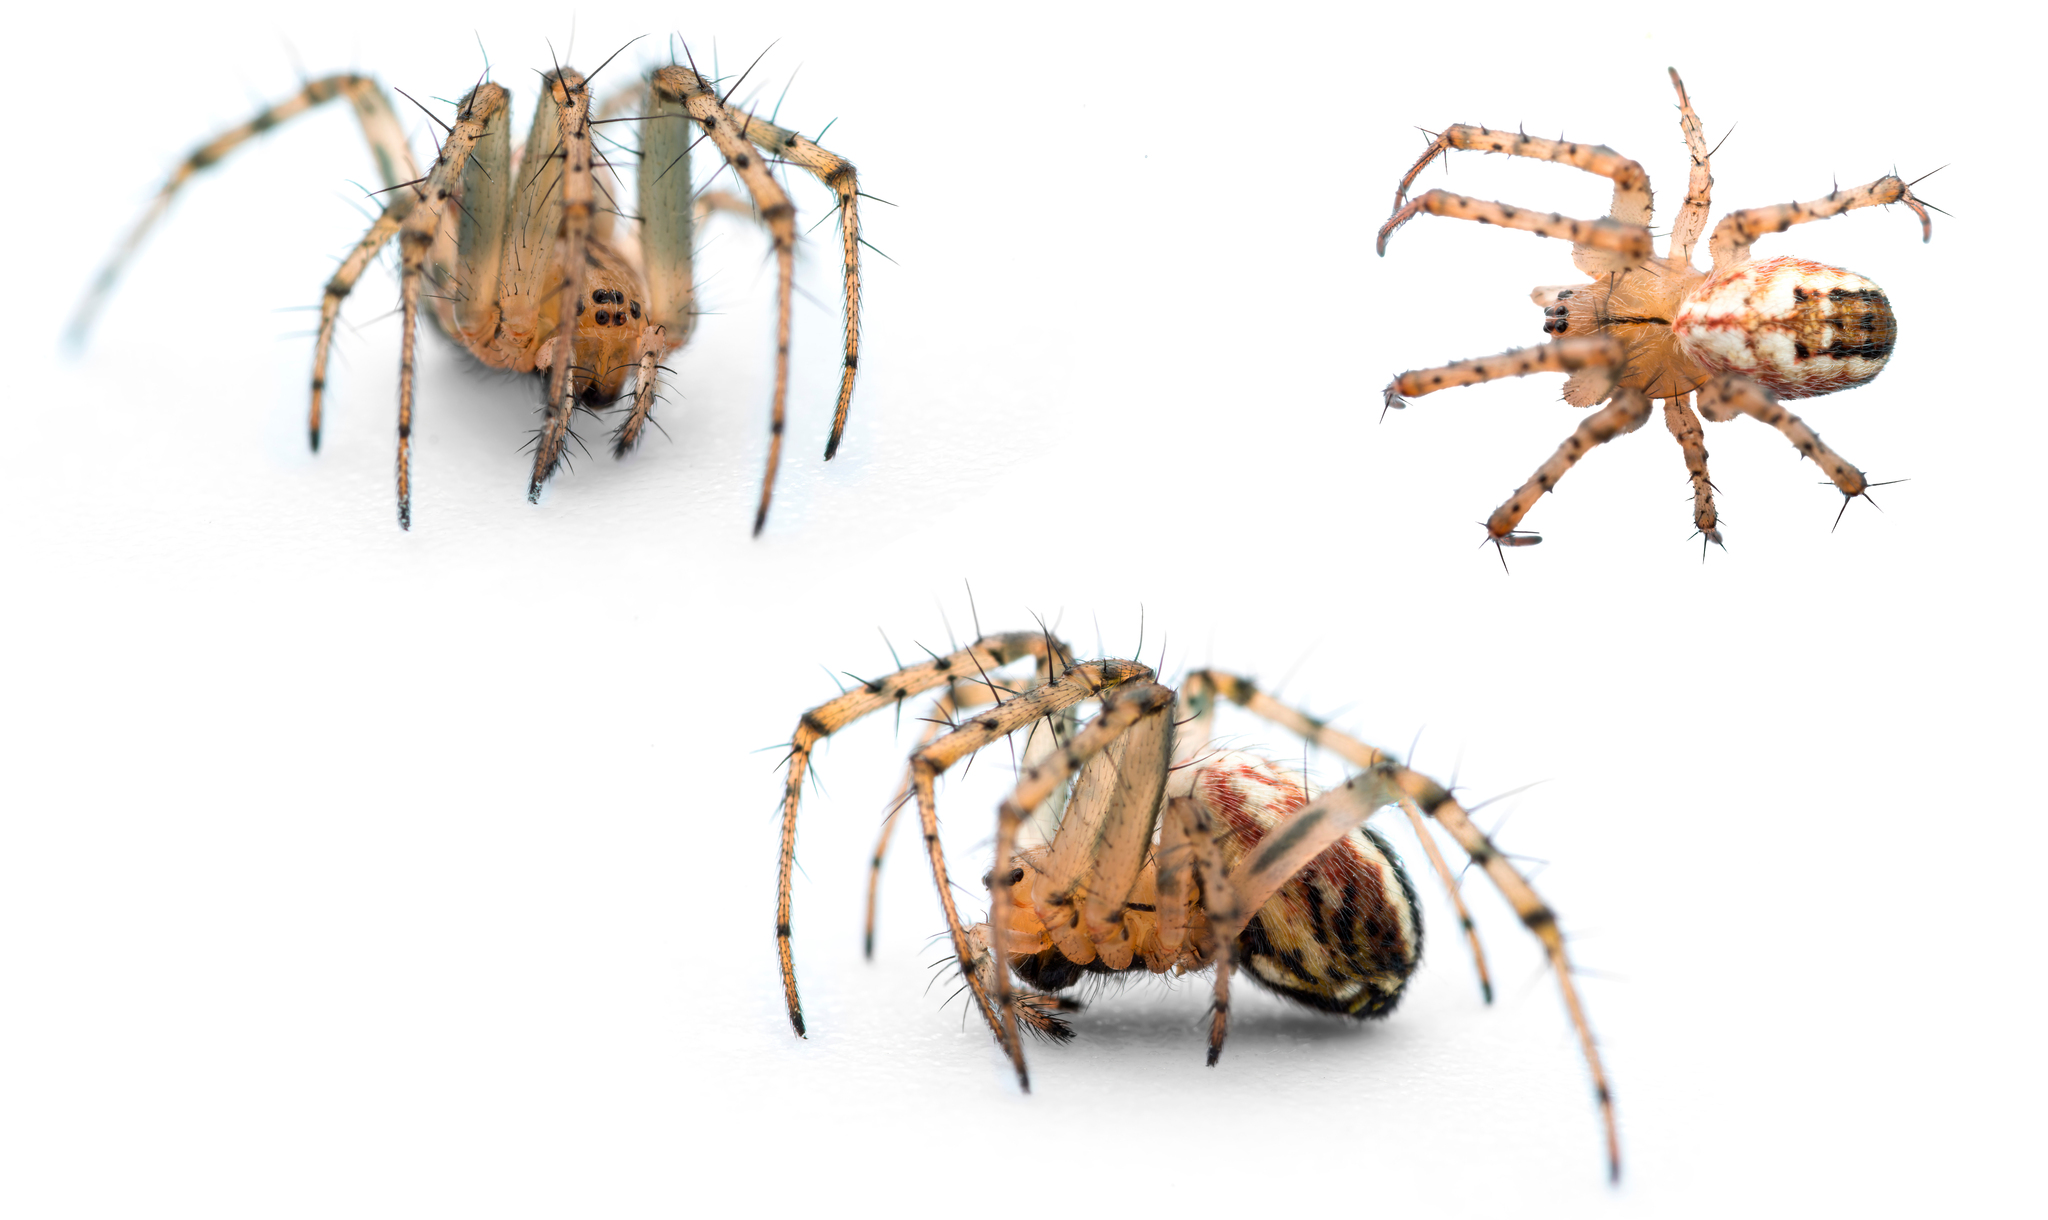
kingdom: Animalia
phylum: Arthropoda
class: Arachnida
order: Araneae
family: Araneidae
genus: Mangora
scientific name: Mangora acalypha
